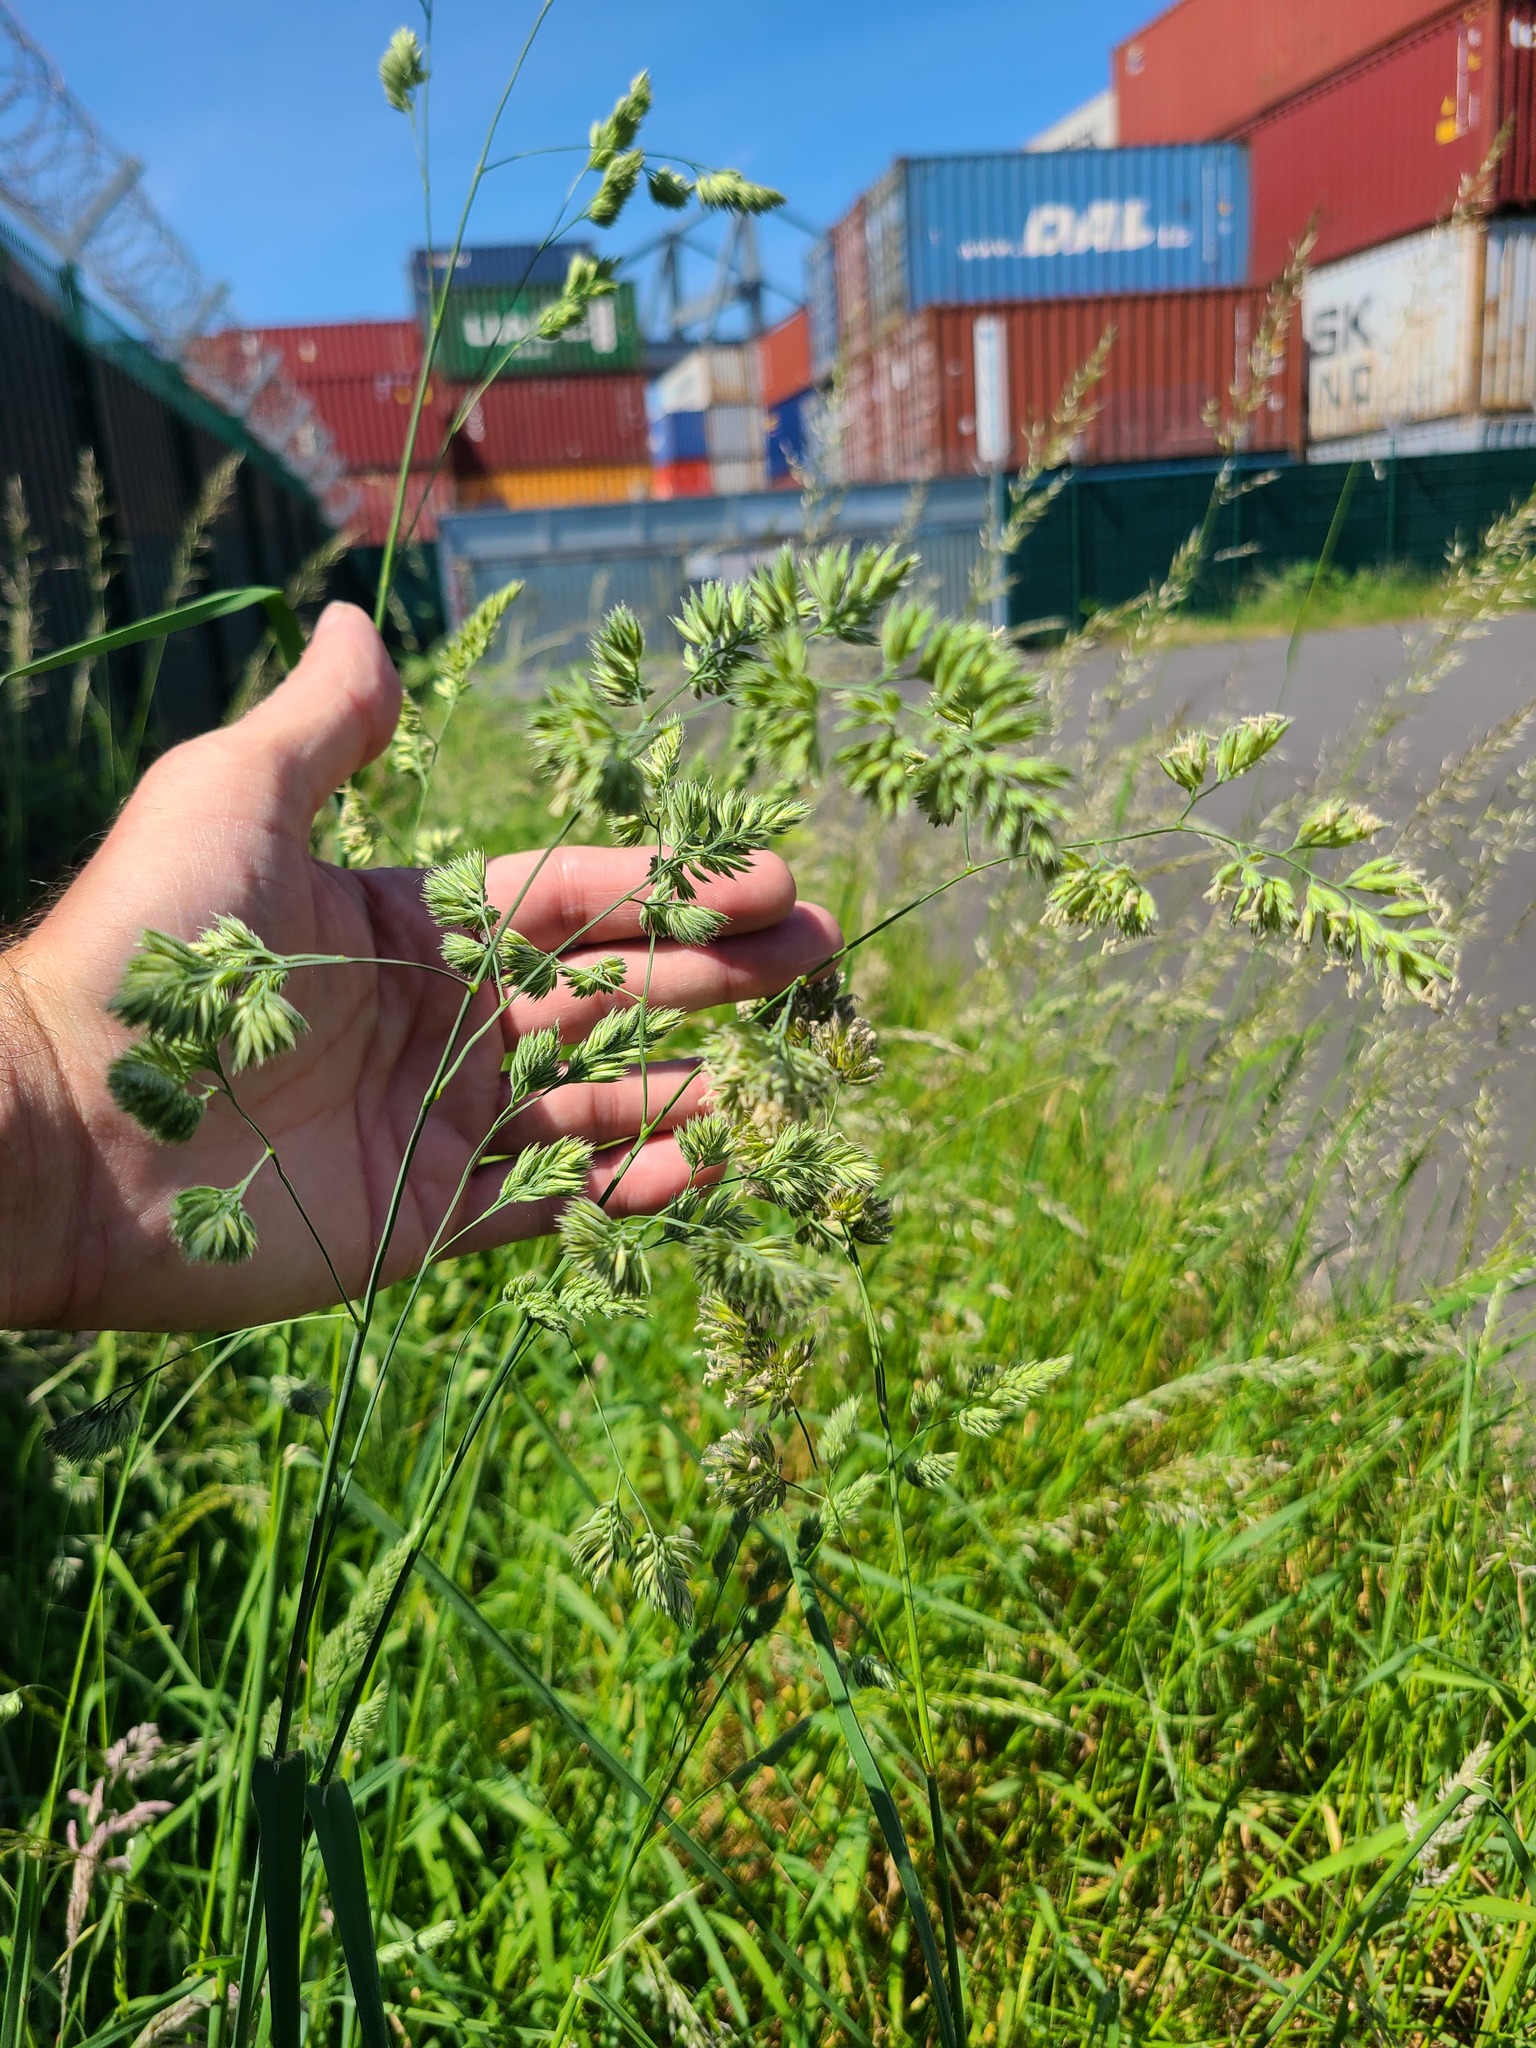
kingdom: Plantae
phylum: Tracheophyta
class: Liliopsida
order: Poales
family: Poaceae
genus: Dactylis
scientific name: Dactylis glomerata
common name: Orchardgrass
